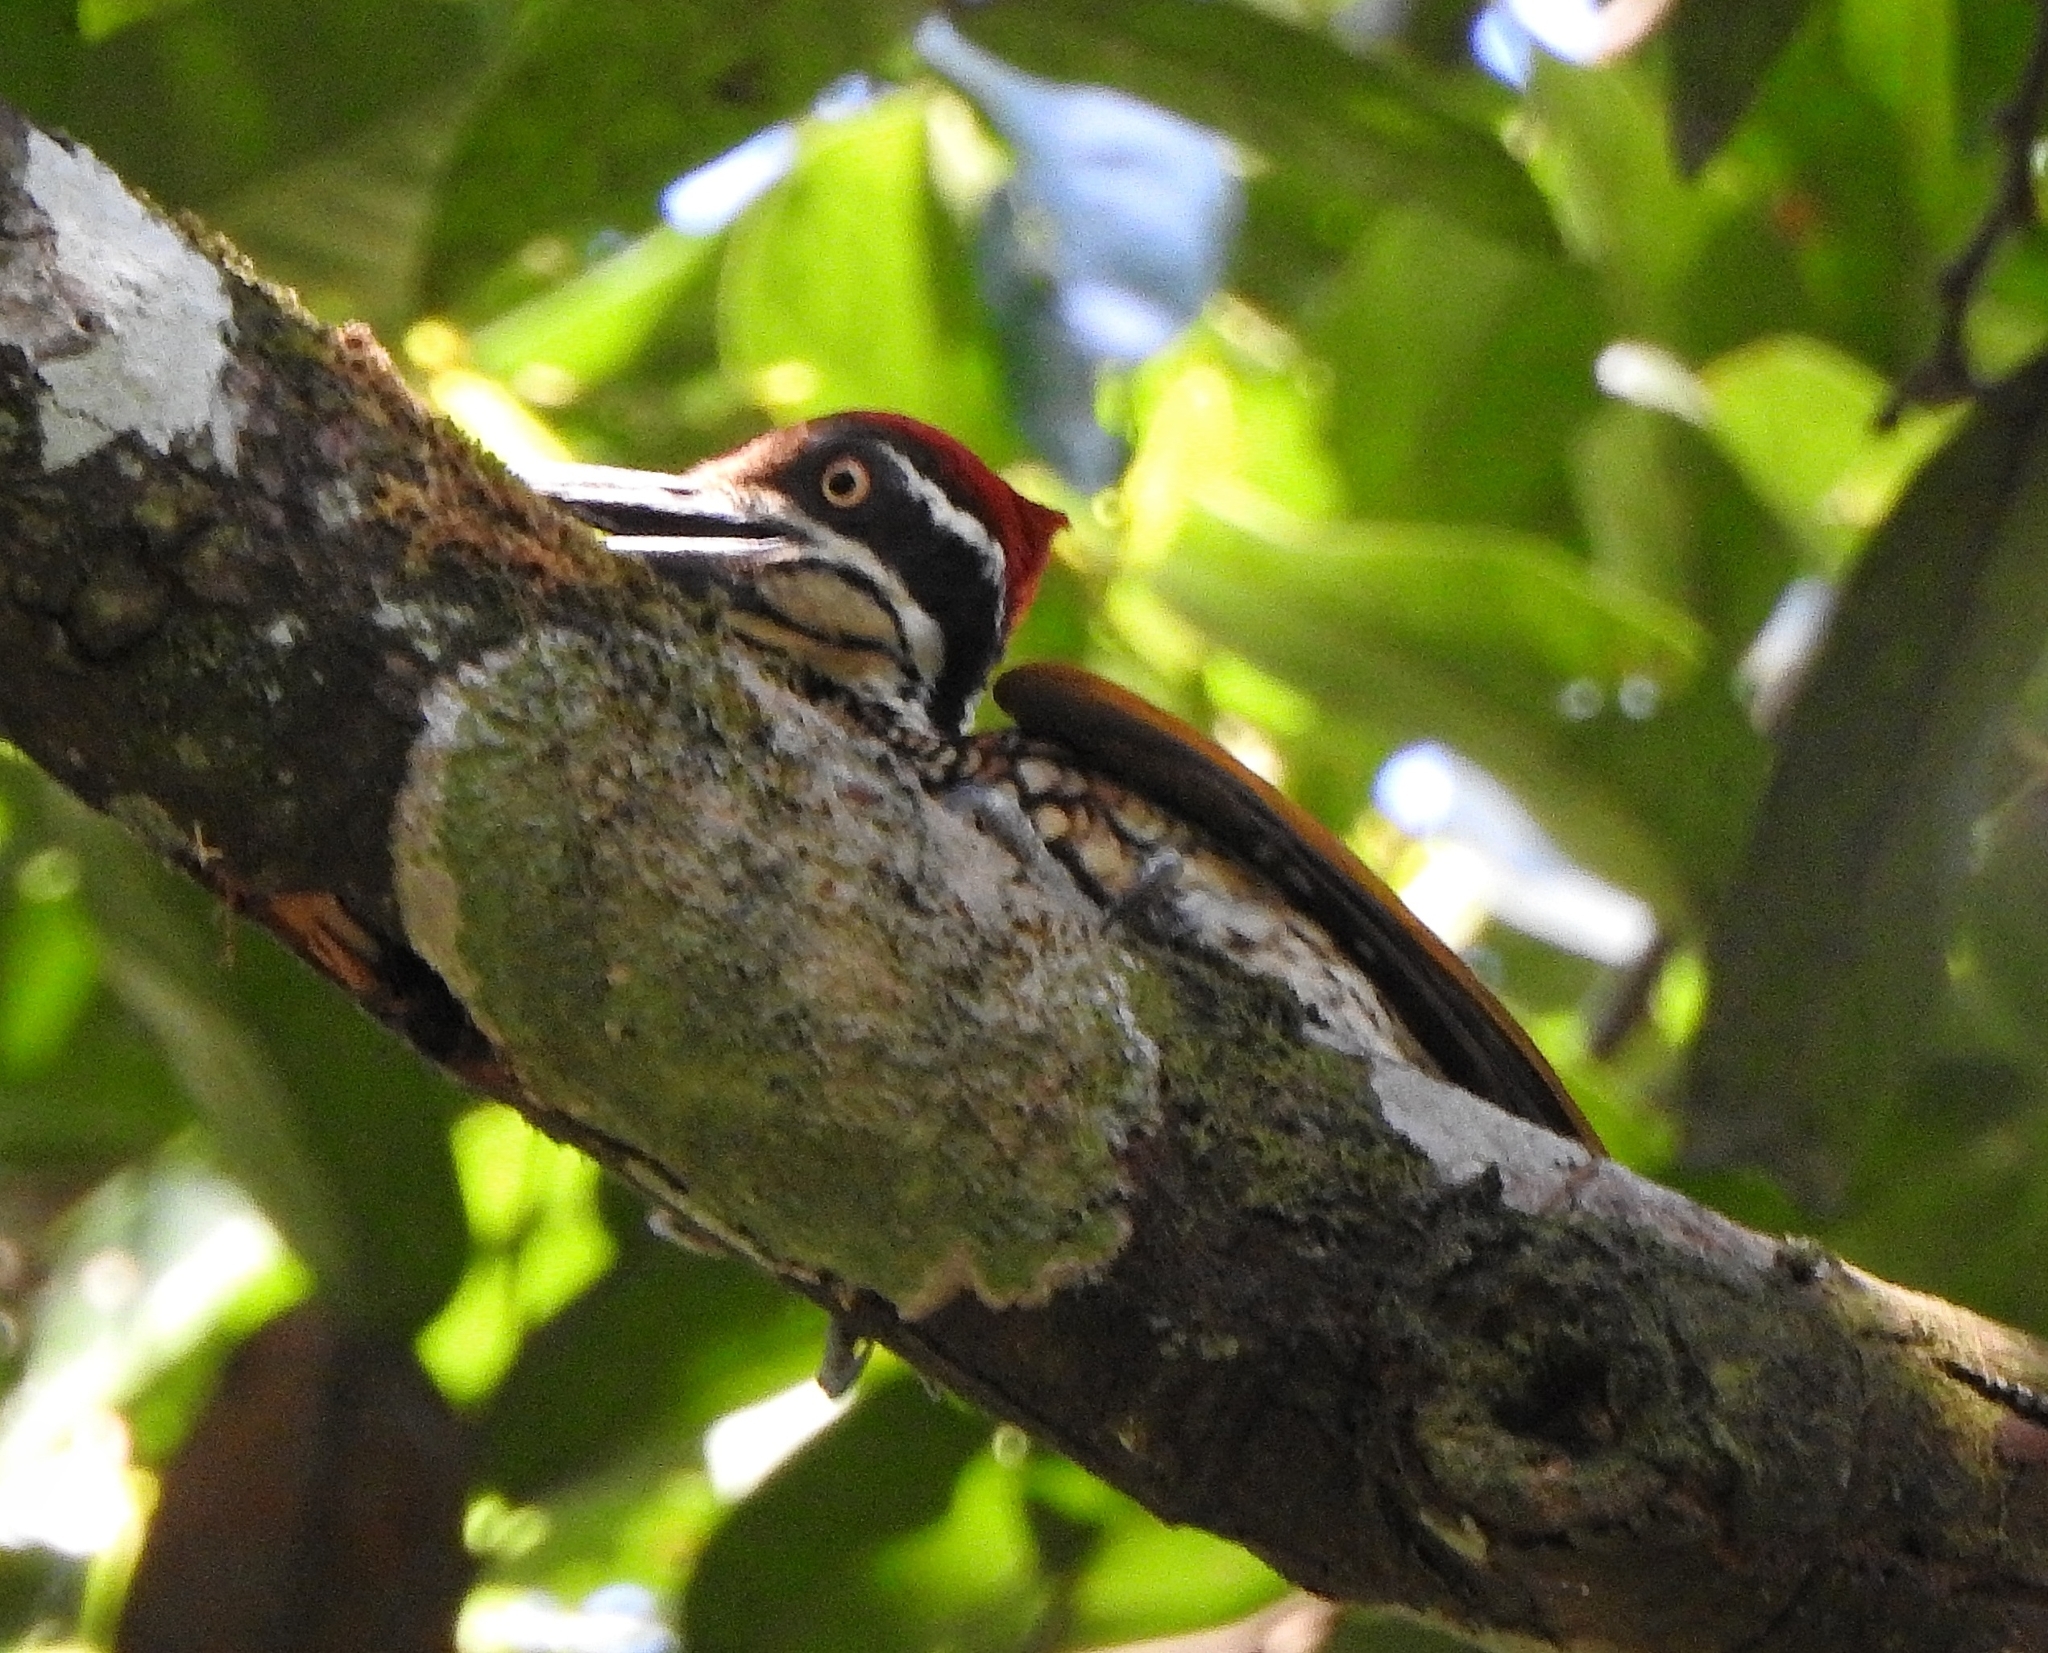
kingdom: Animalia
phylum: Chordata
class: Aves
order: Piciformes
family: Picidae
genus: Chrysocolaptes
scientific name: Chrysocolaptes socialis
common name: Malabar flameback
